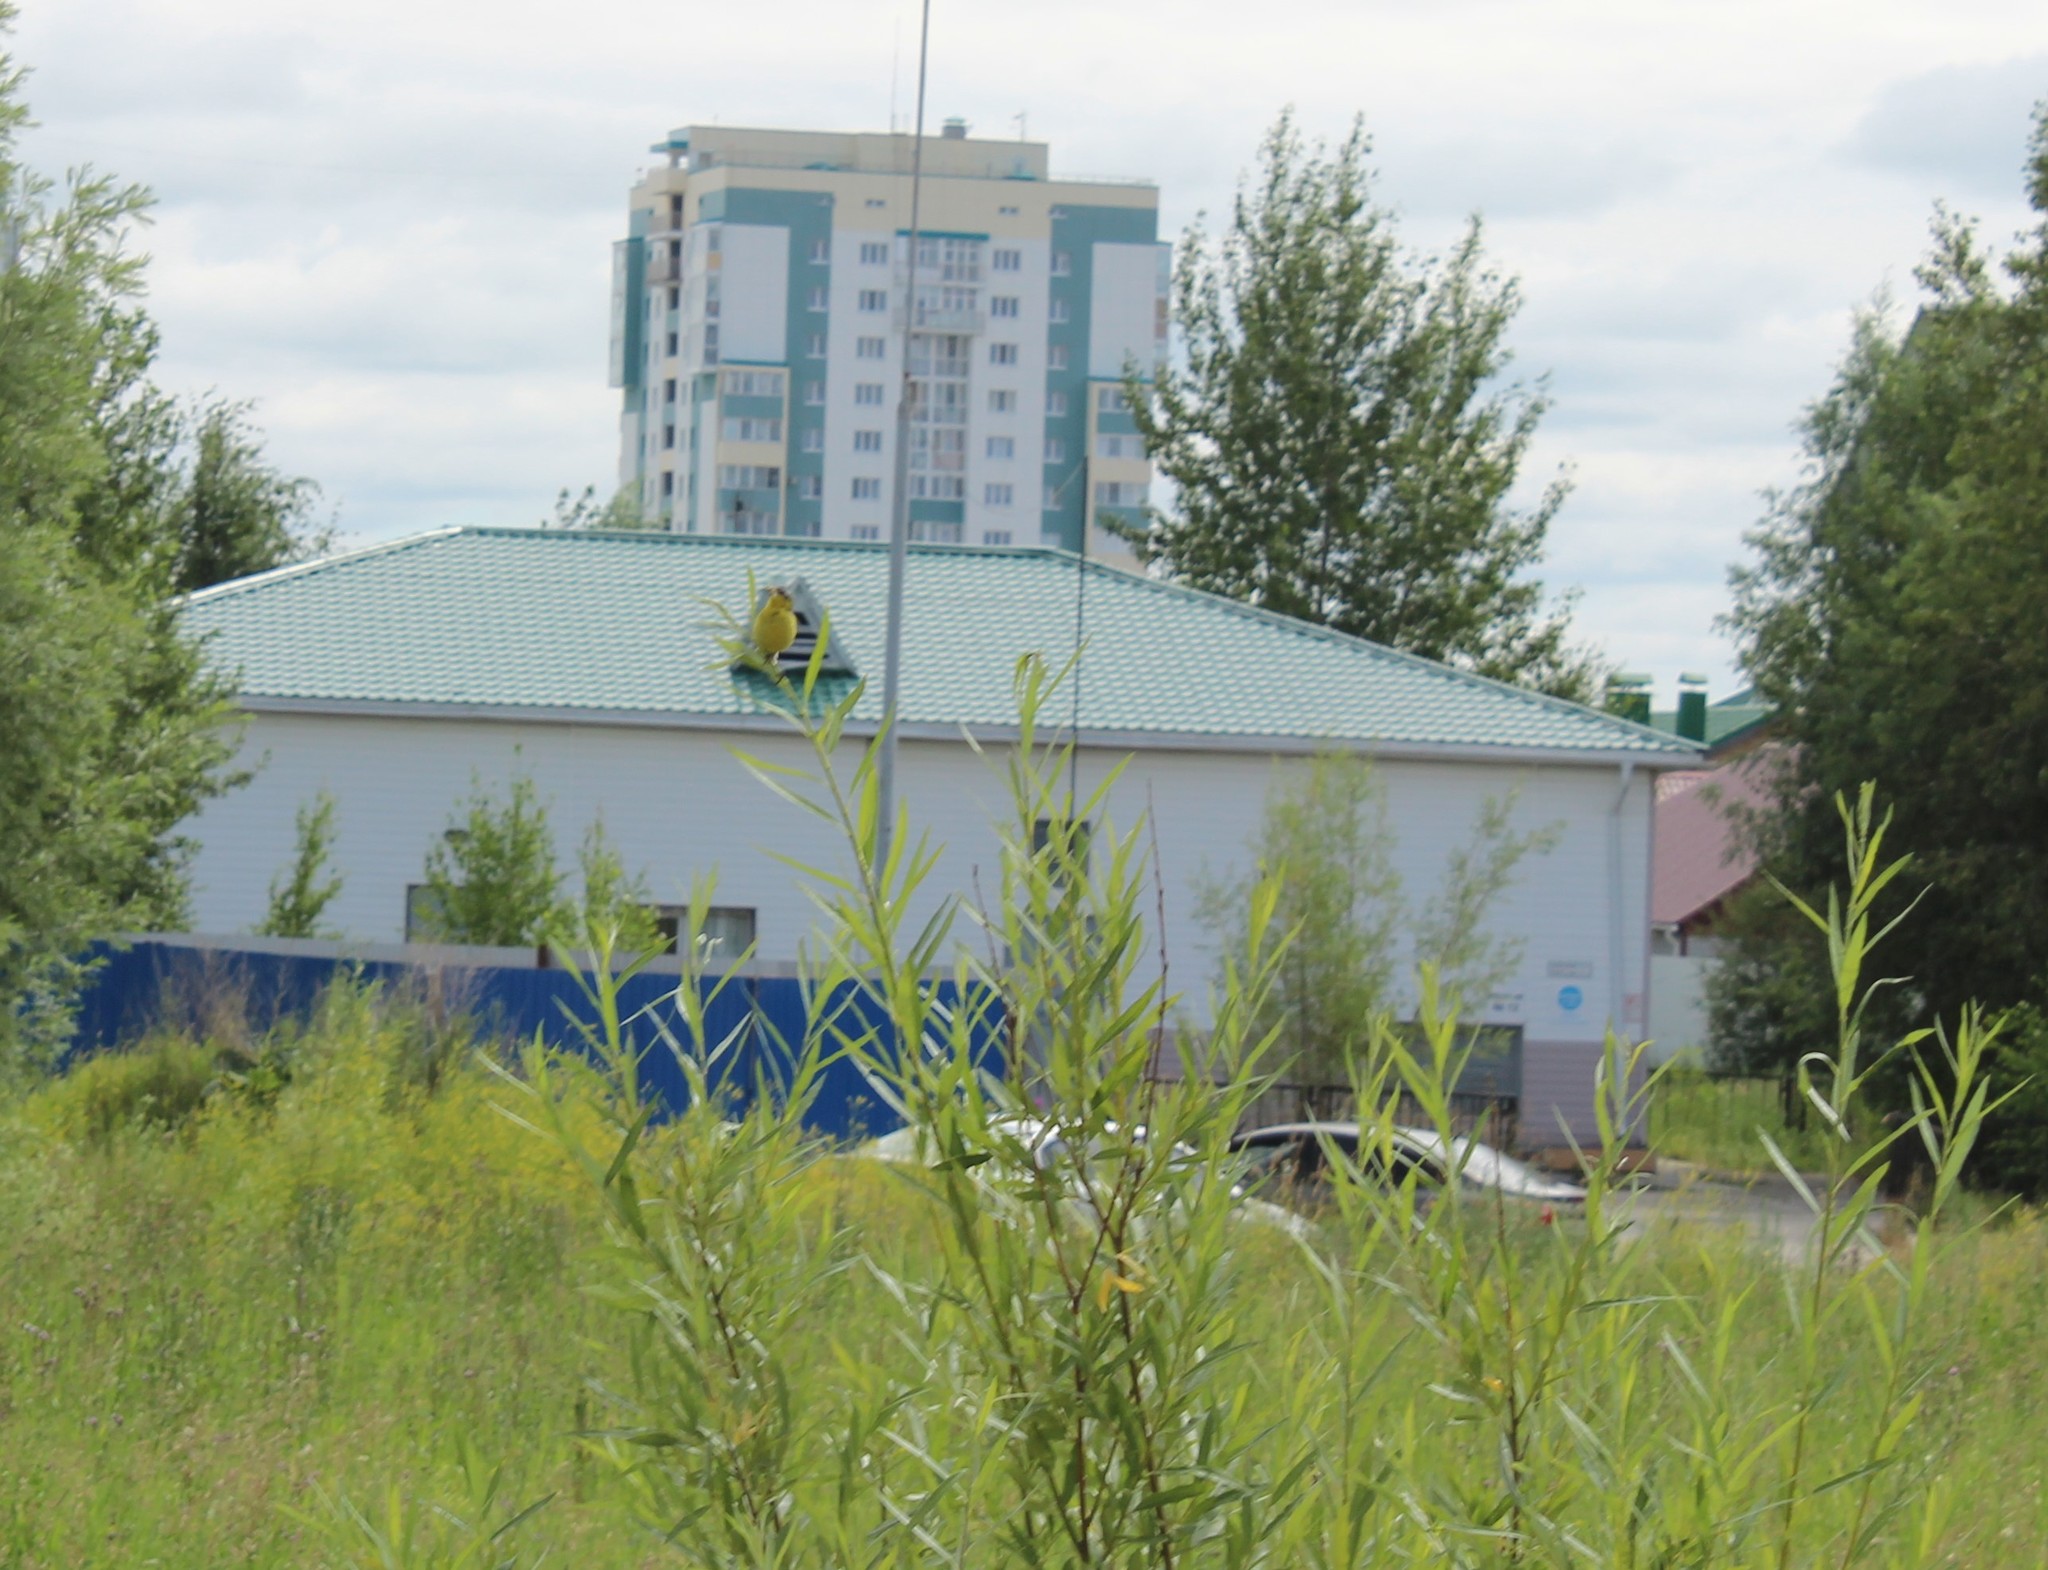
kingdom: Animalia
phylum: Chordata
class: Aves
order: Passeriformes
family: Motacillidae
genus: Motacilla
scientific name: Motacilla flava
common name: Western yellow wagtail
